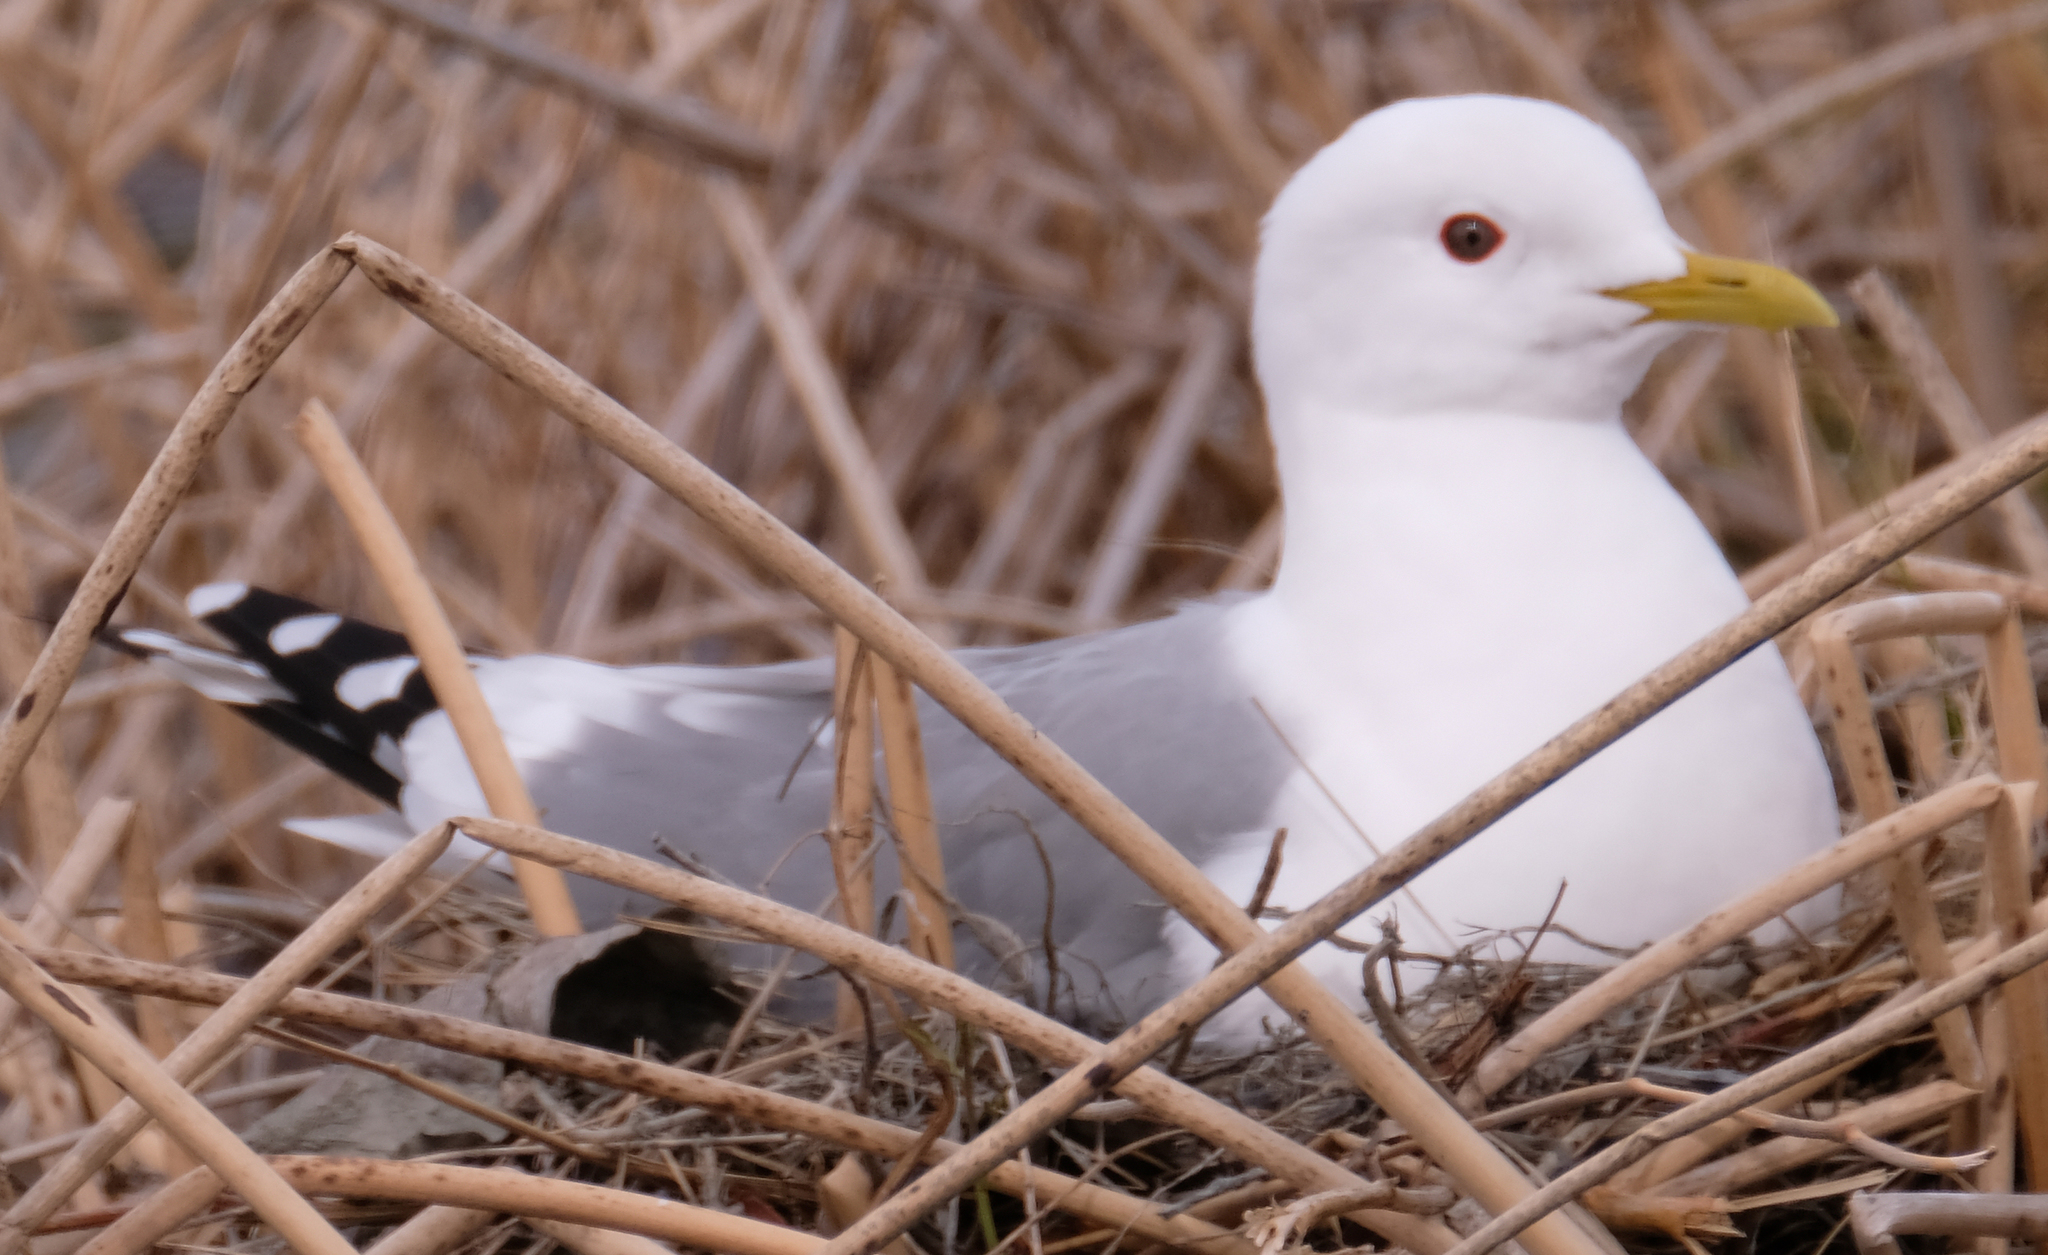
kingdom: Animalia
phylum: Chordata
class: Aves
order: Charadriiformes
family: Laridae
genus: Larus
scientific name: Larus brachyrhynchus
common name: Short-billed gull
